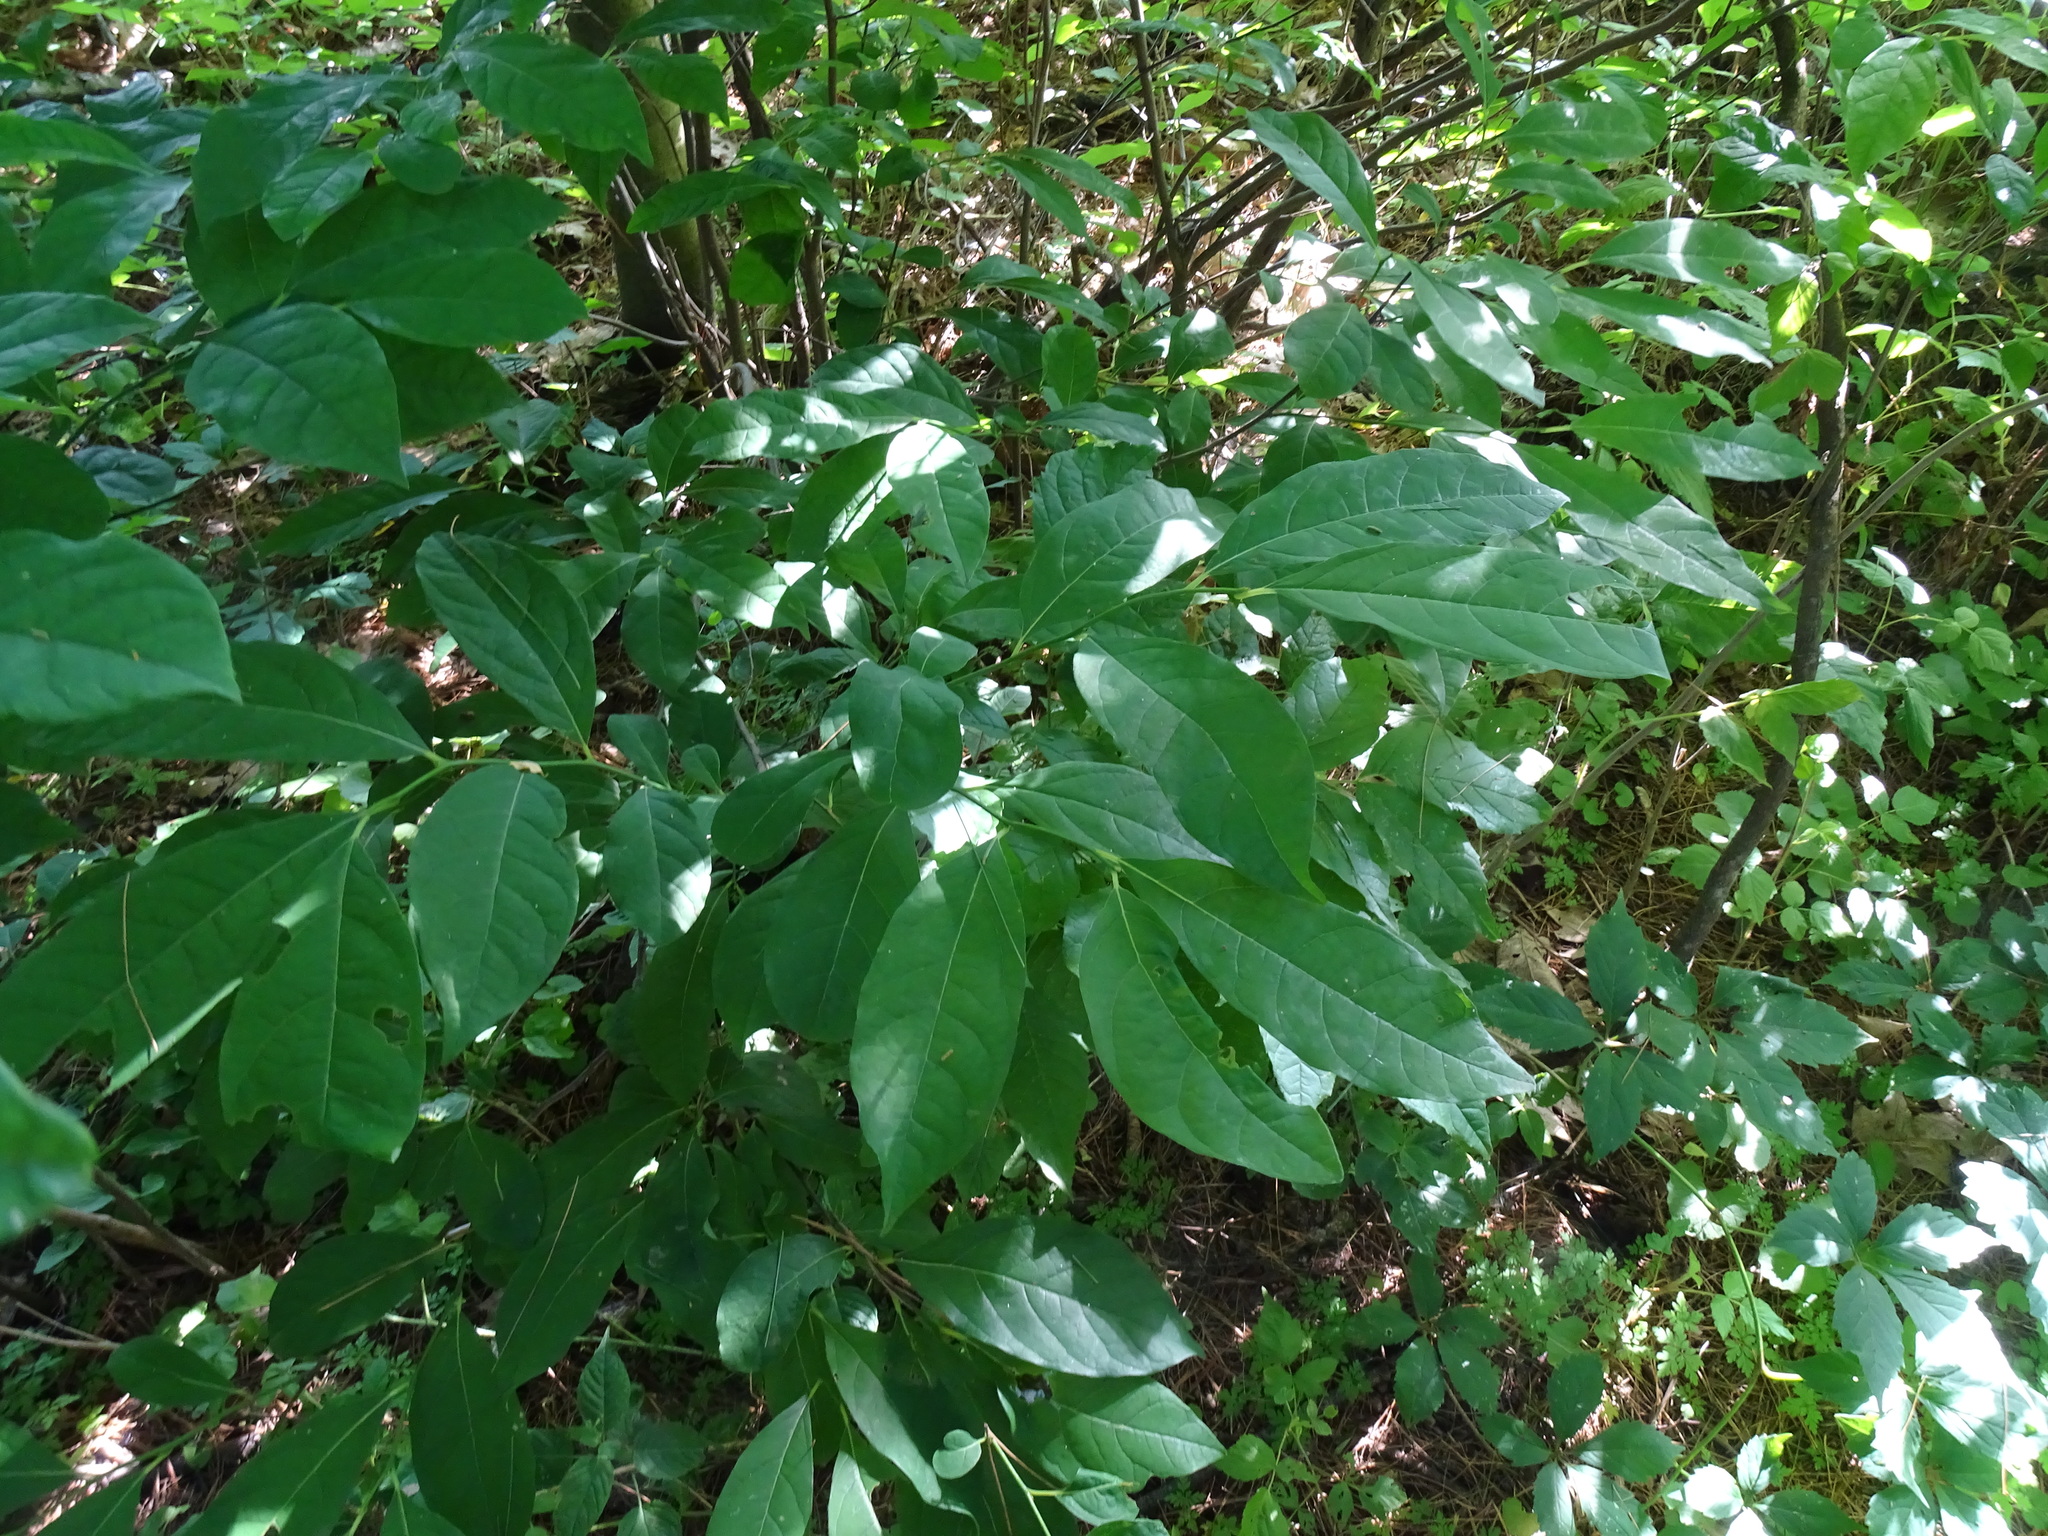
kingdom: Plantae
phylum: Tracheophyta
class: Magnoliopsida
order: Laurales
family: Lauraceae
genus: Lindera
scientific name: Lindera benzoin
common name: Spicebush
